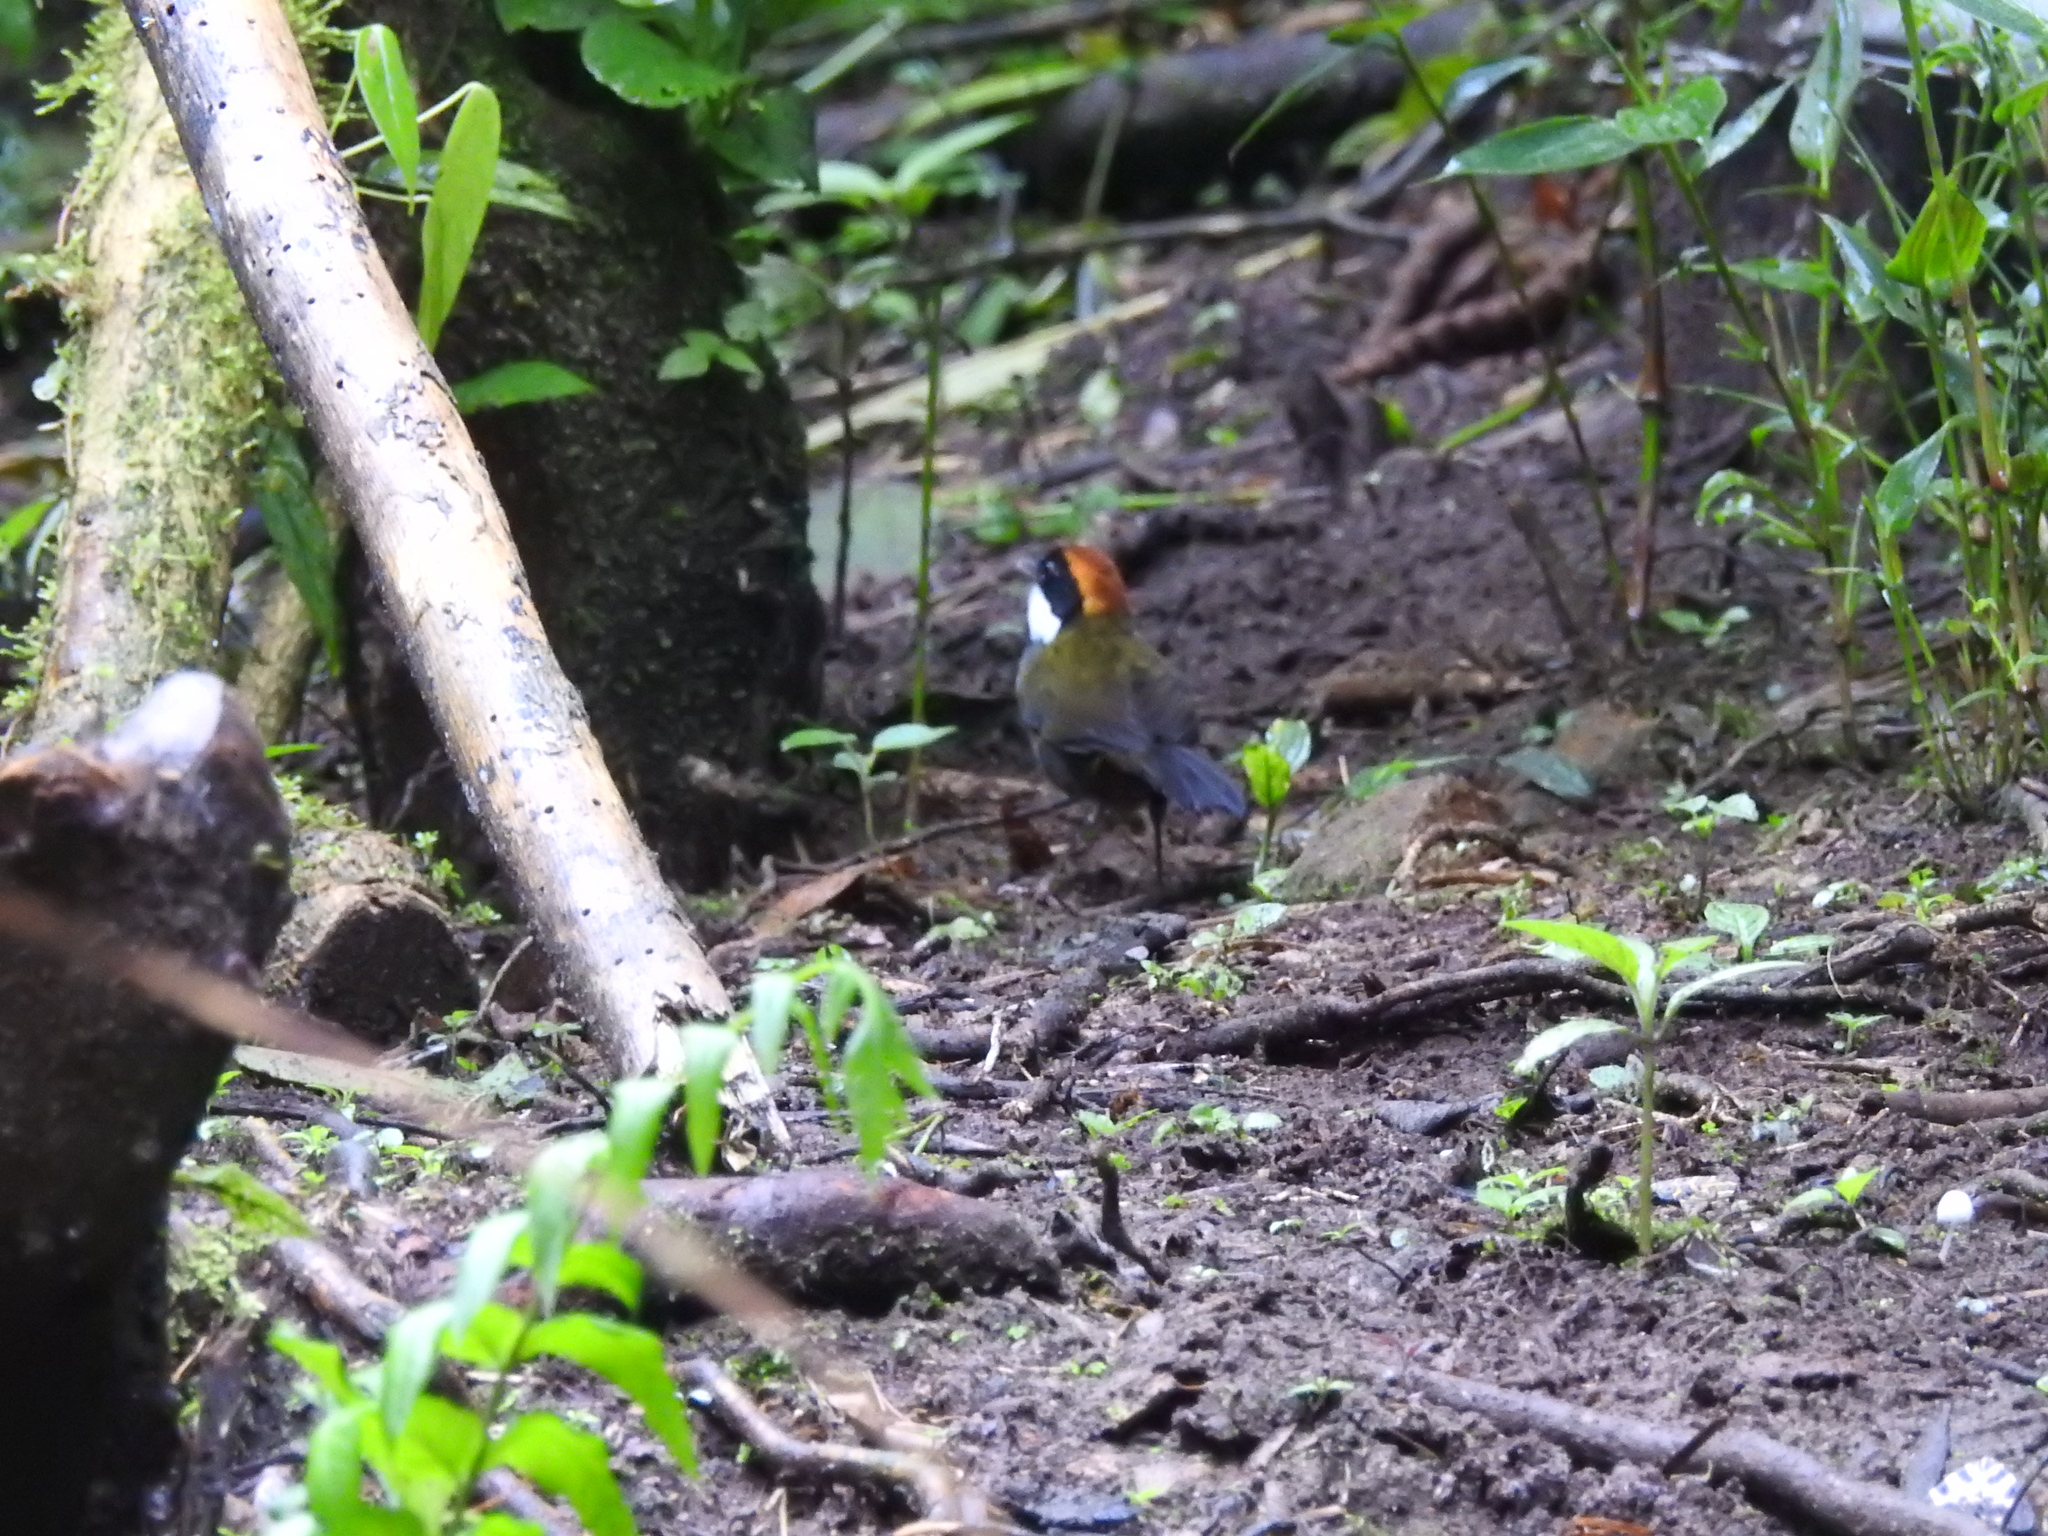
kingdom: Animalia
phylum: Chordata
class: Aves
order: Passeriformes
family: Passerellidae
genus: Arremon
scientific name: Arremon brunneinucha
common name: Chestnut-capped brushfinch
